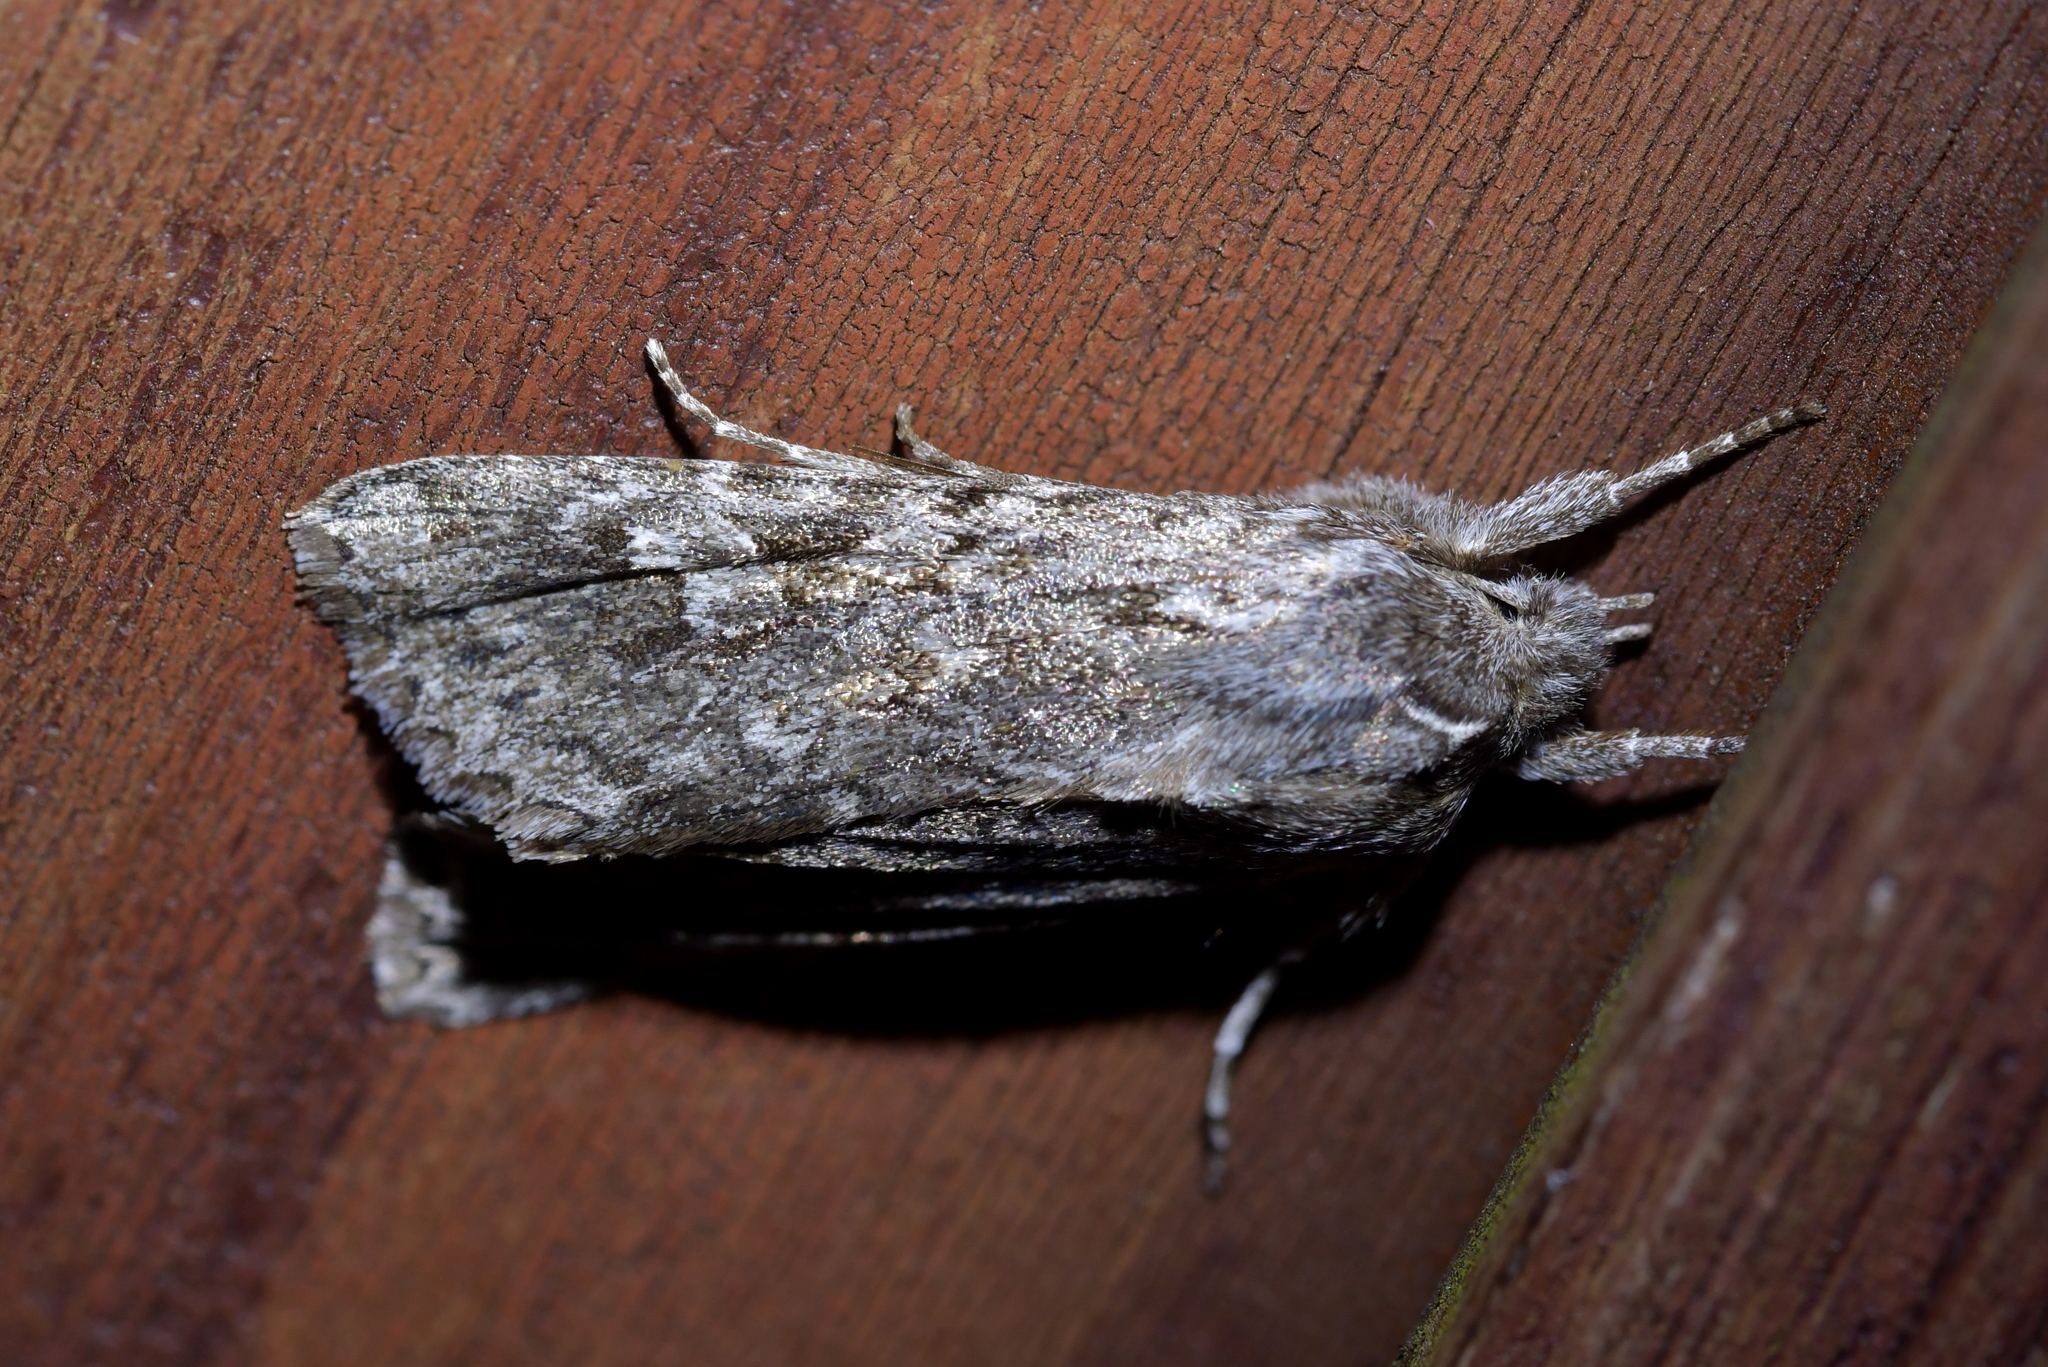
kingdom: Animalia
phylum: Arthropoda
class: Insecta
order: Lepidoptera
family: Noctuidae
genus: Physetica
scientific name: Physetica sequens
